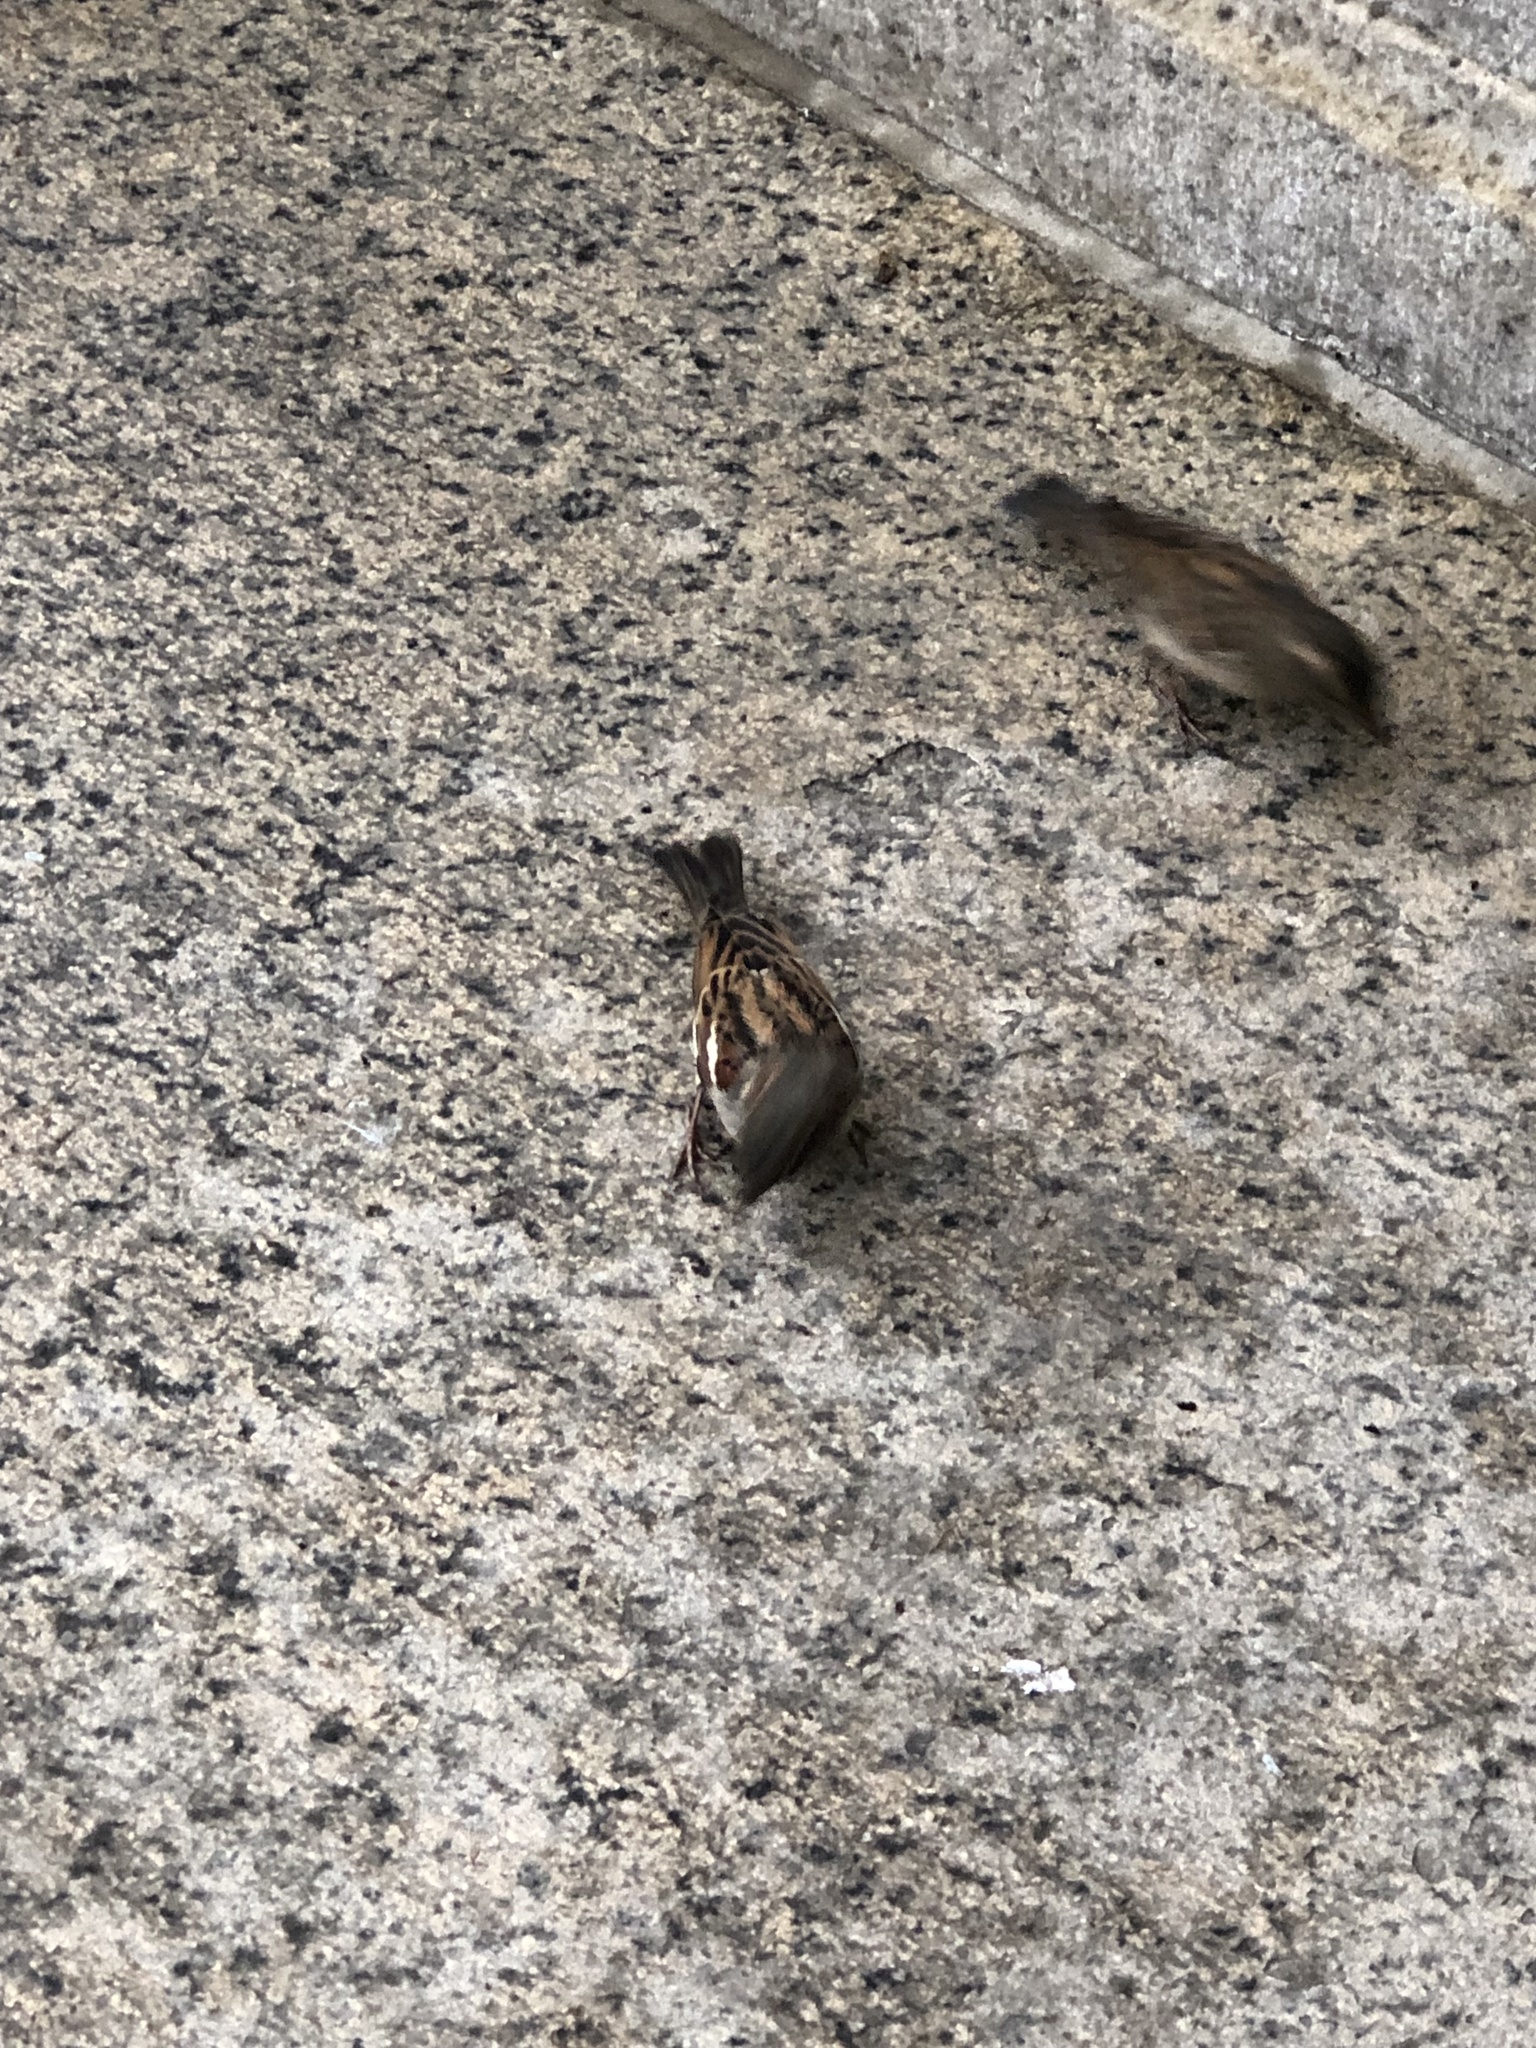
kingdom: Animalia
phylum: Chordata
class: Aves
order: Passeriformes
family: Passeridae
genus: Passer
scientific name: Passer domesticus
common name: House sparrow
